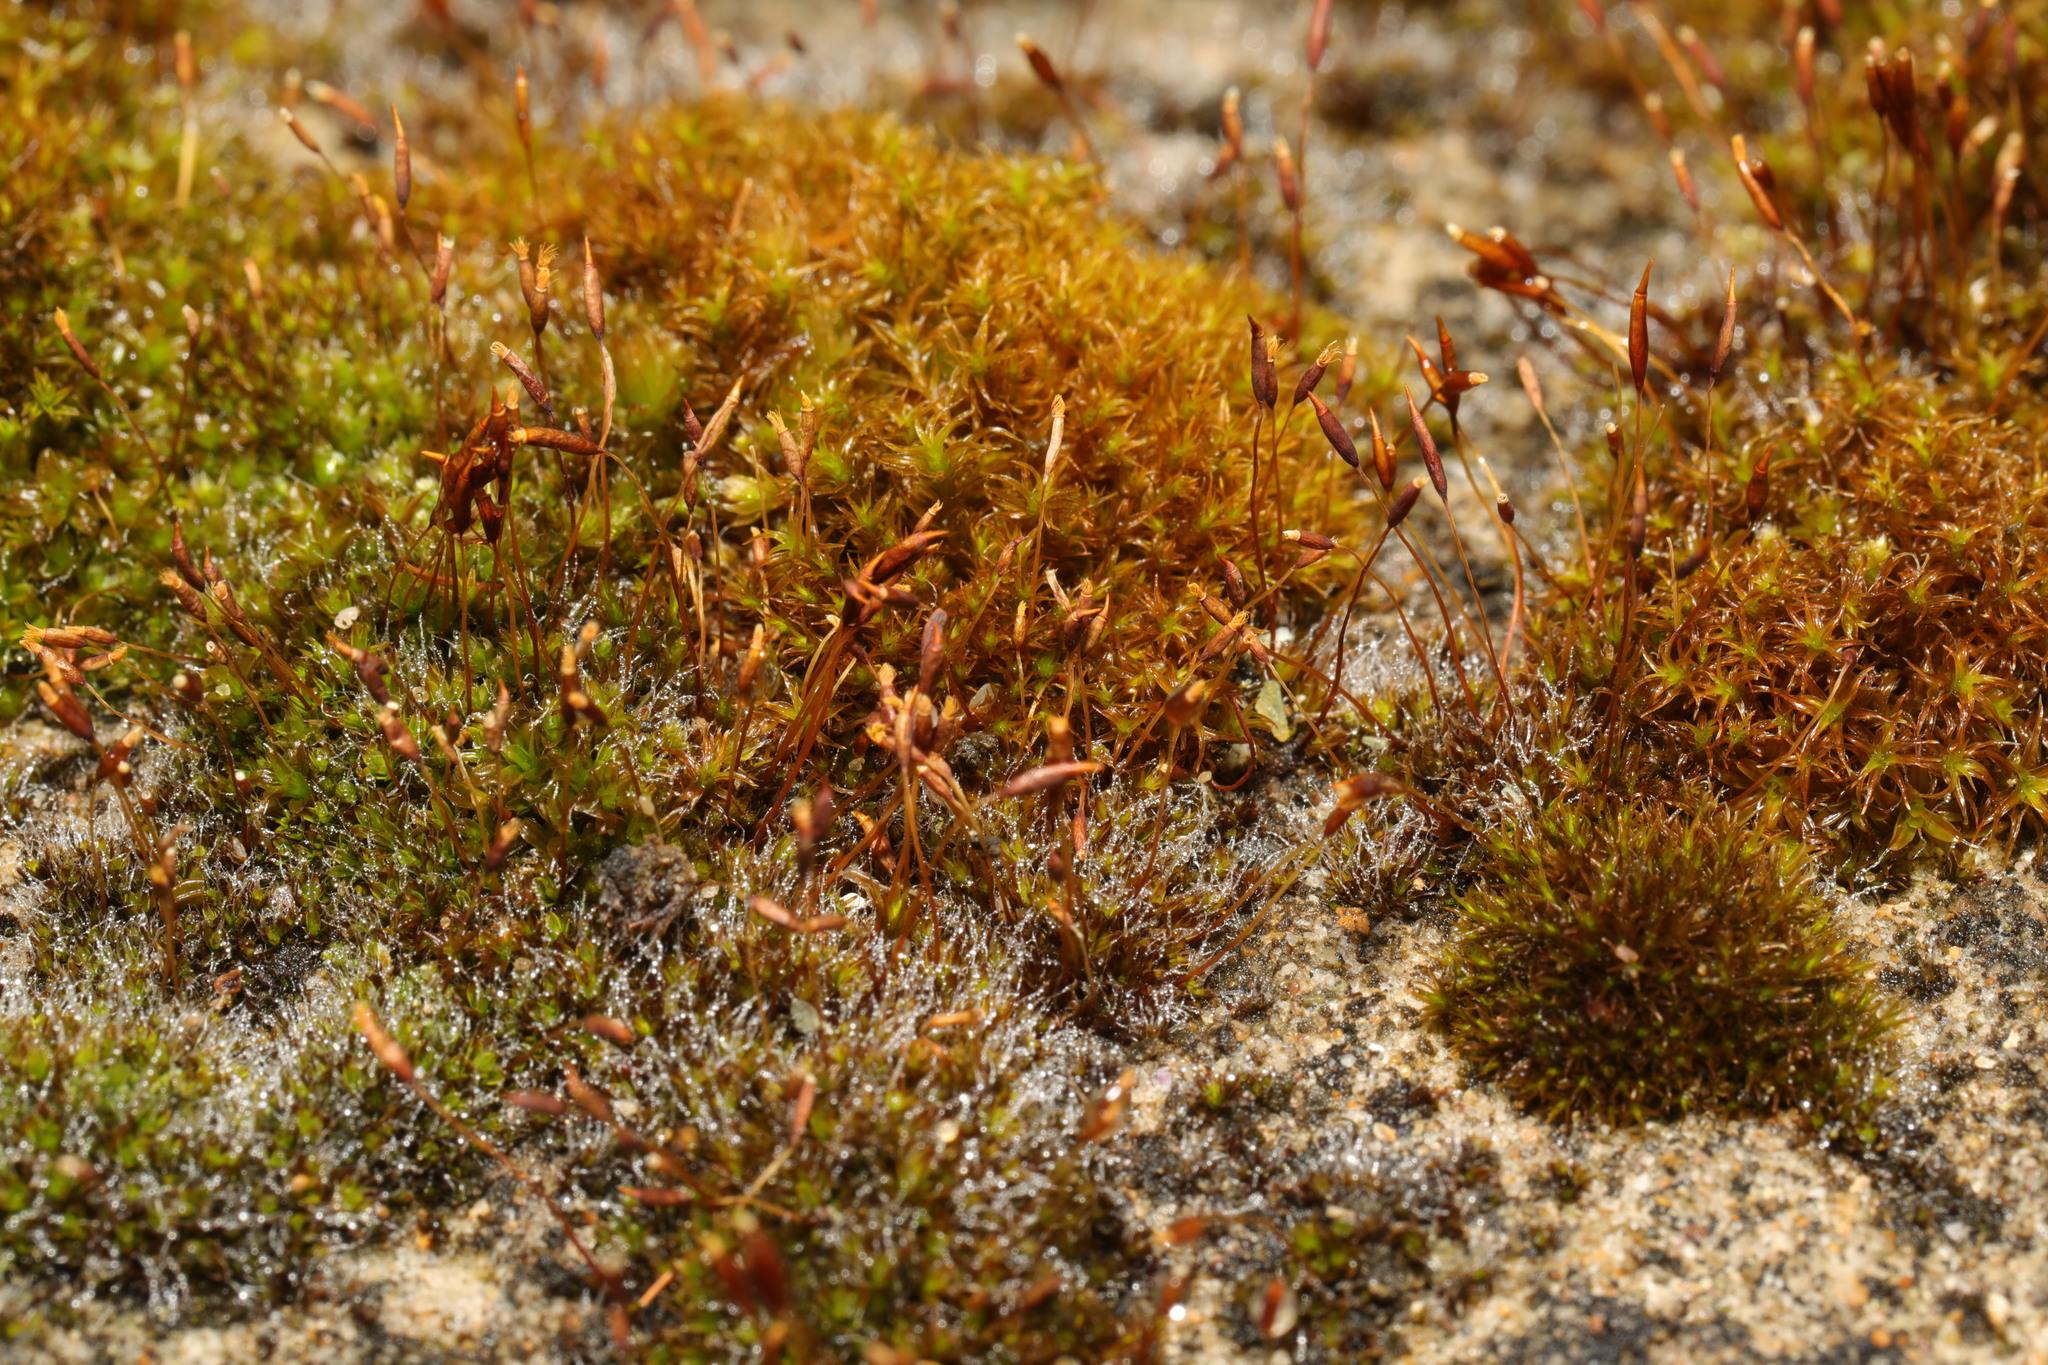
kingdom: Plantae
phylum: Bryophyta
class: Bryopsida
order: Pottiales
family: Pottiaceae
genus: Tortula
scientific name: Tortula muralis
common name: Wall screw-moss
